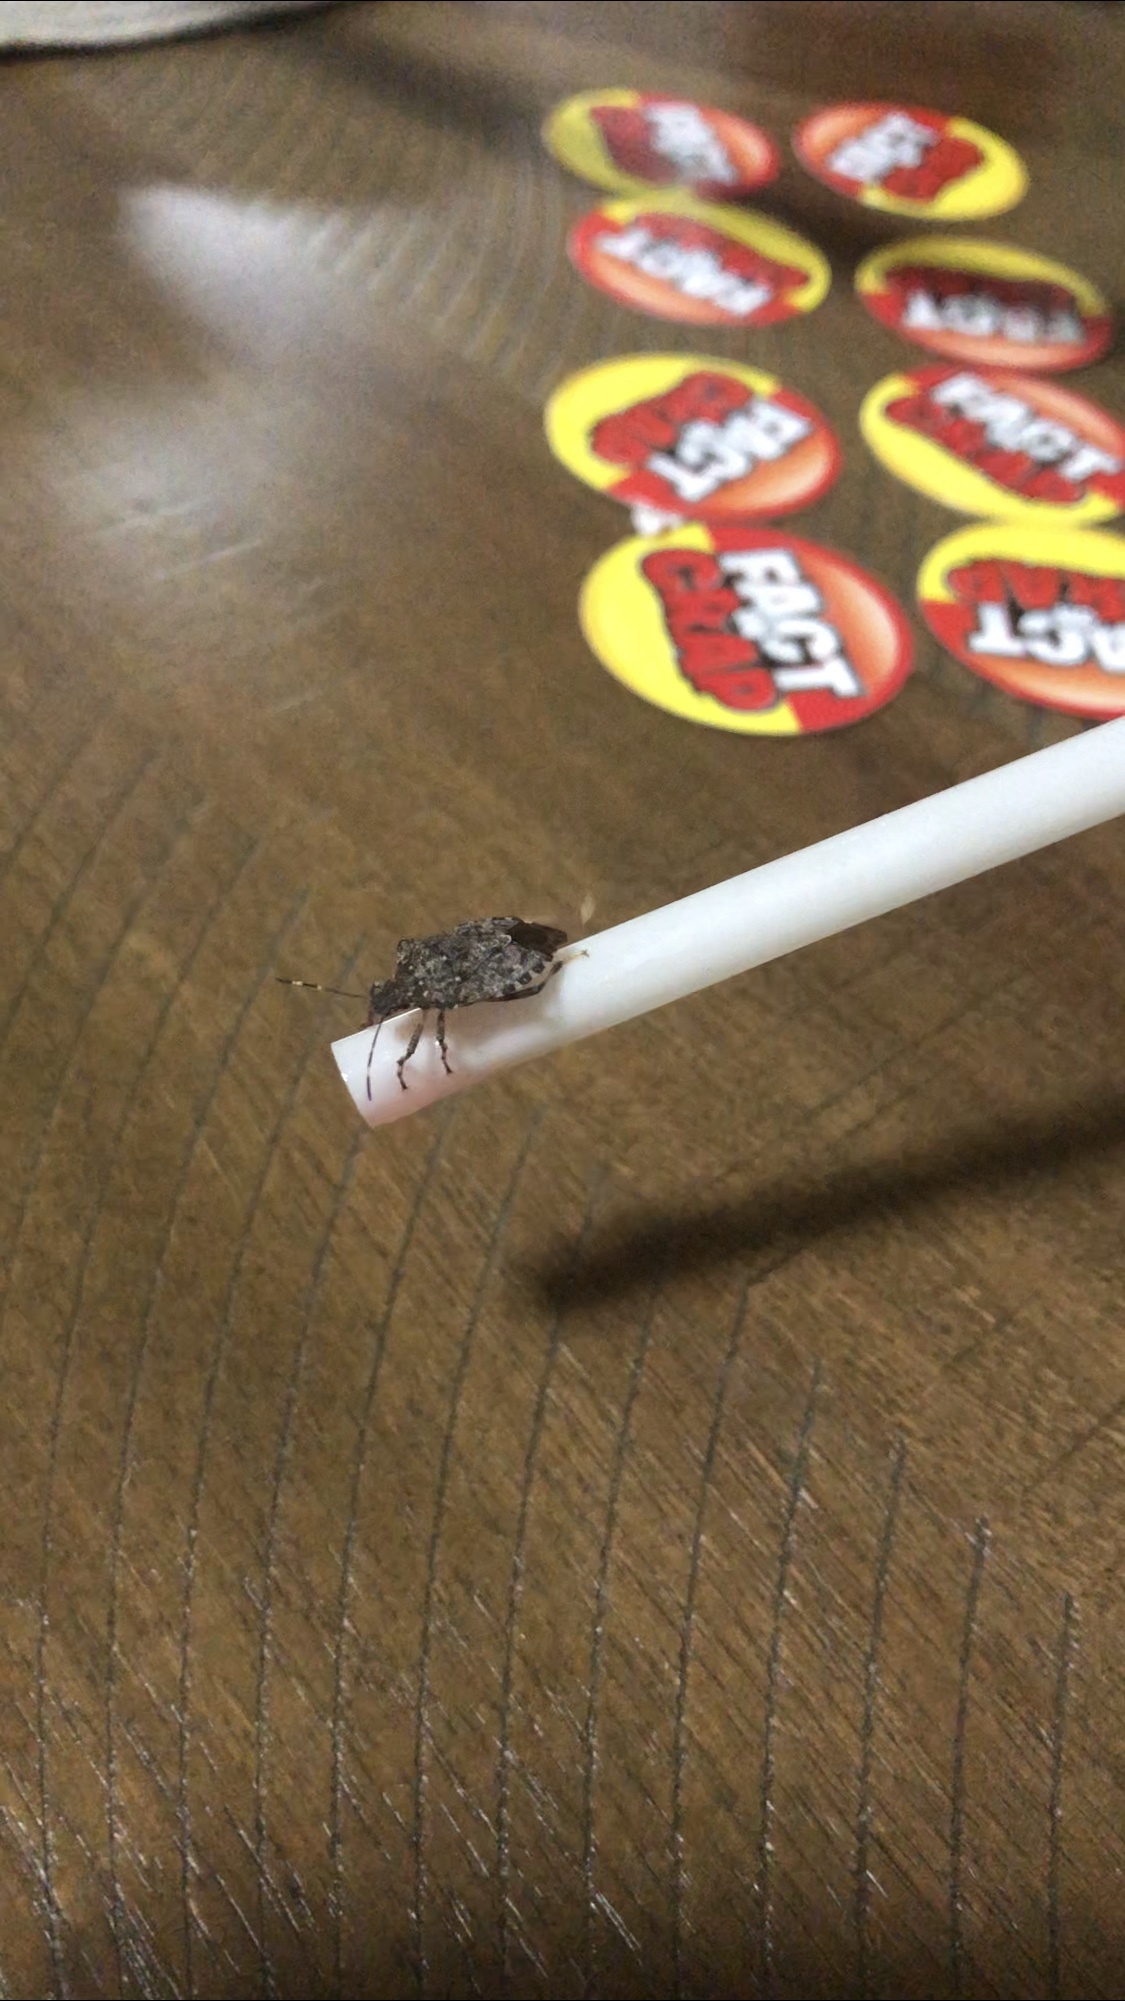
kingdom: Animalia
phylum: Arthropoda
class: Insecta
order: Hemiptera
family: Pentatomidae
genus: Halyomorpha
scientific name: Halyomorpha halys
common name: Brown marmorated stink bug
